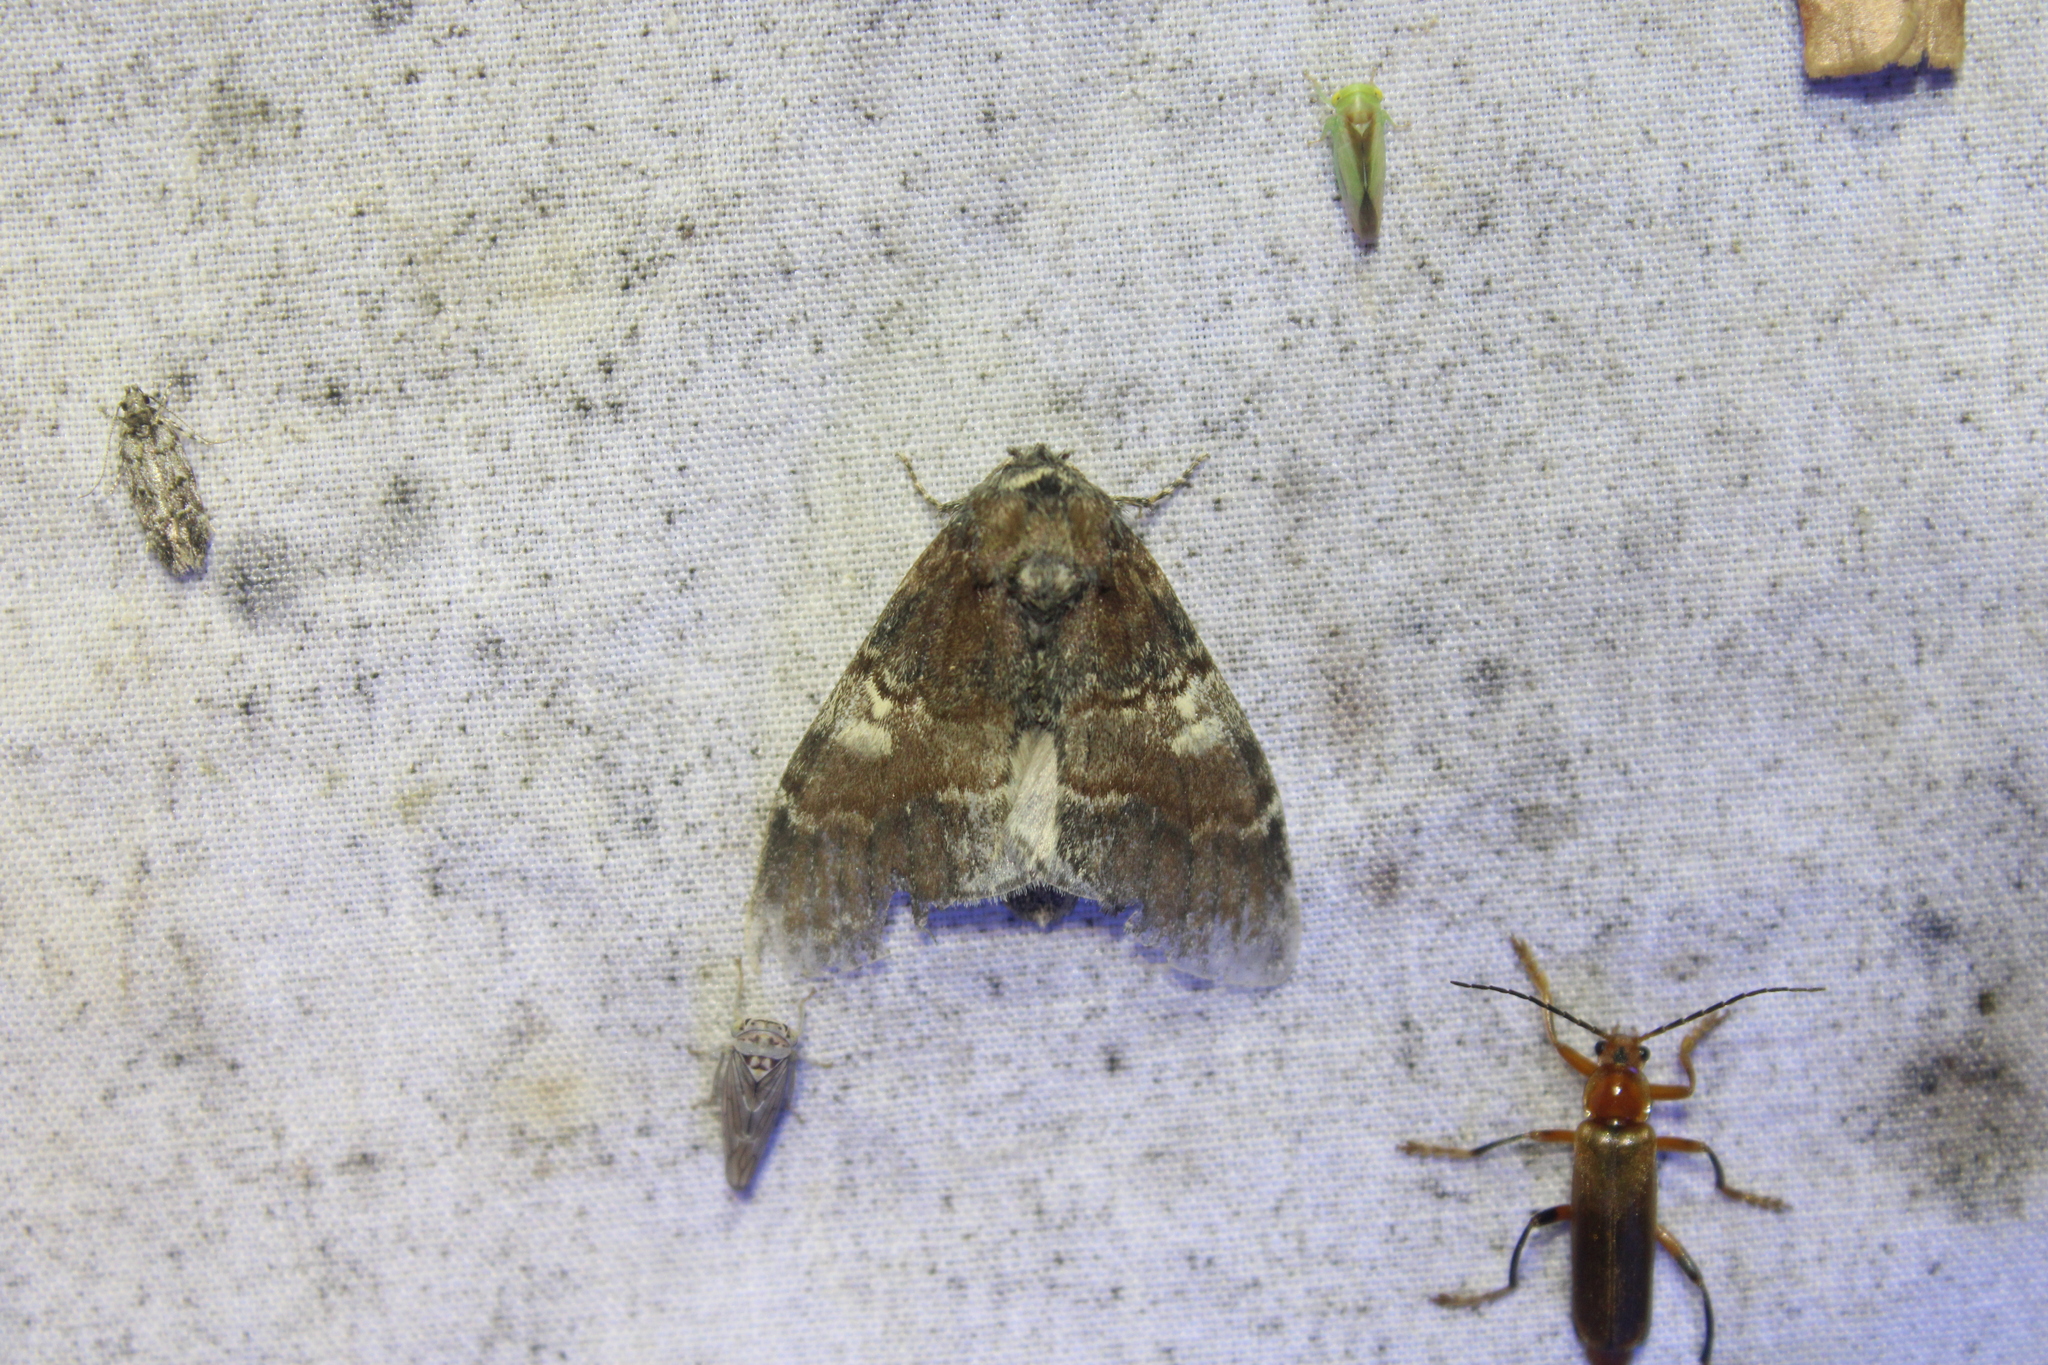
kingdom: Animalia
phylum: Arthropoda
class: Insecta
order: Lepidoptera
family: Notodontidae
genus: Peridea
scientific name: Peridea ferruginea
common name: Chocolate prominent
